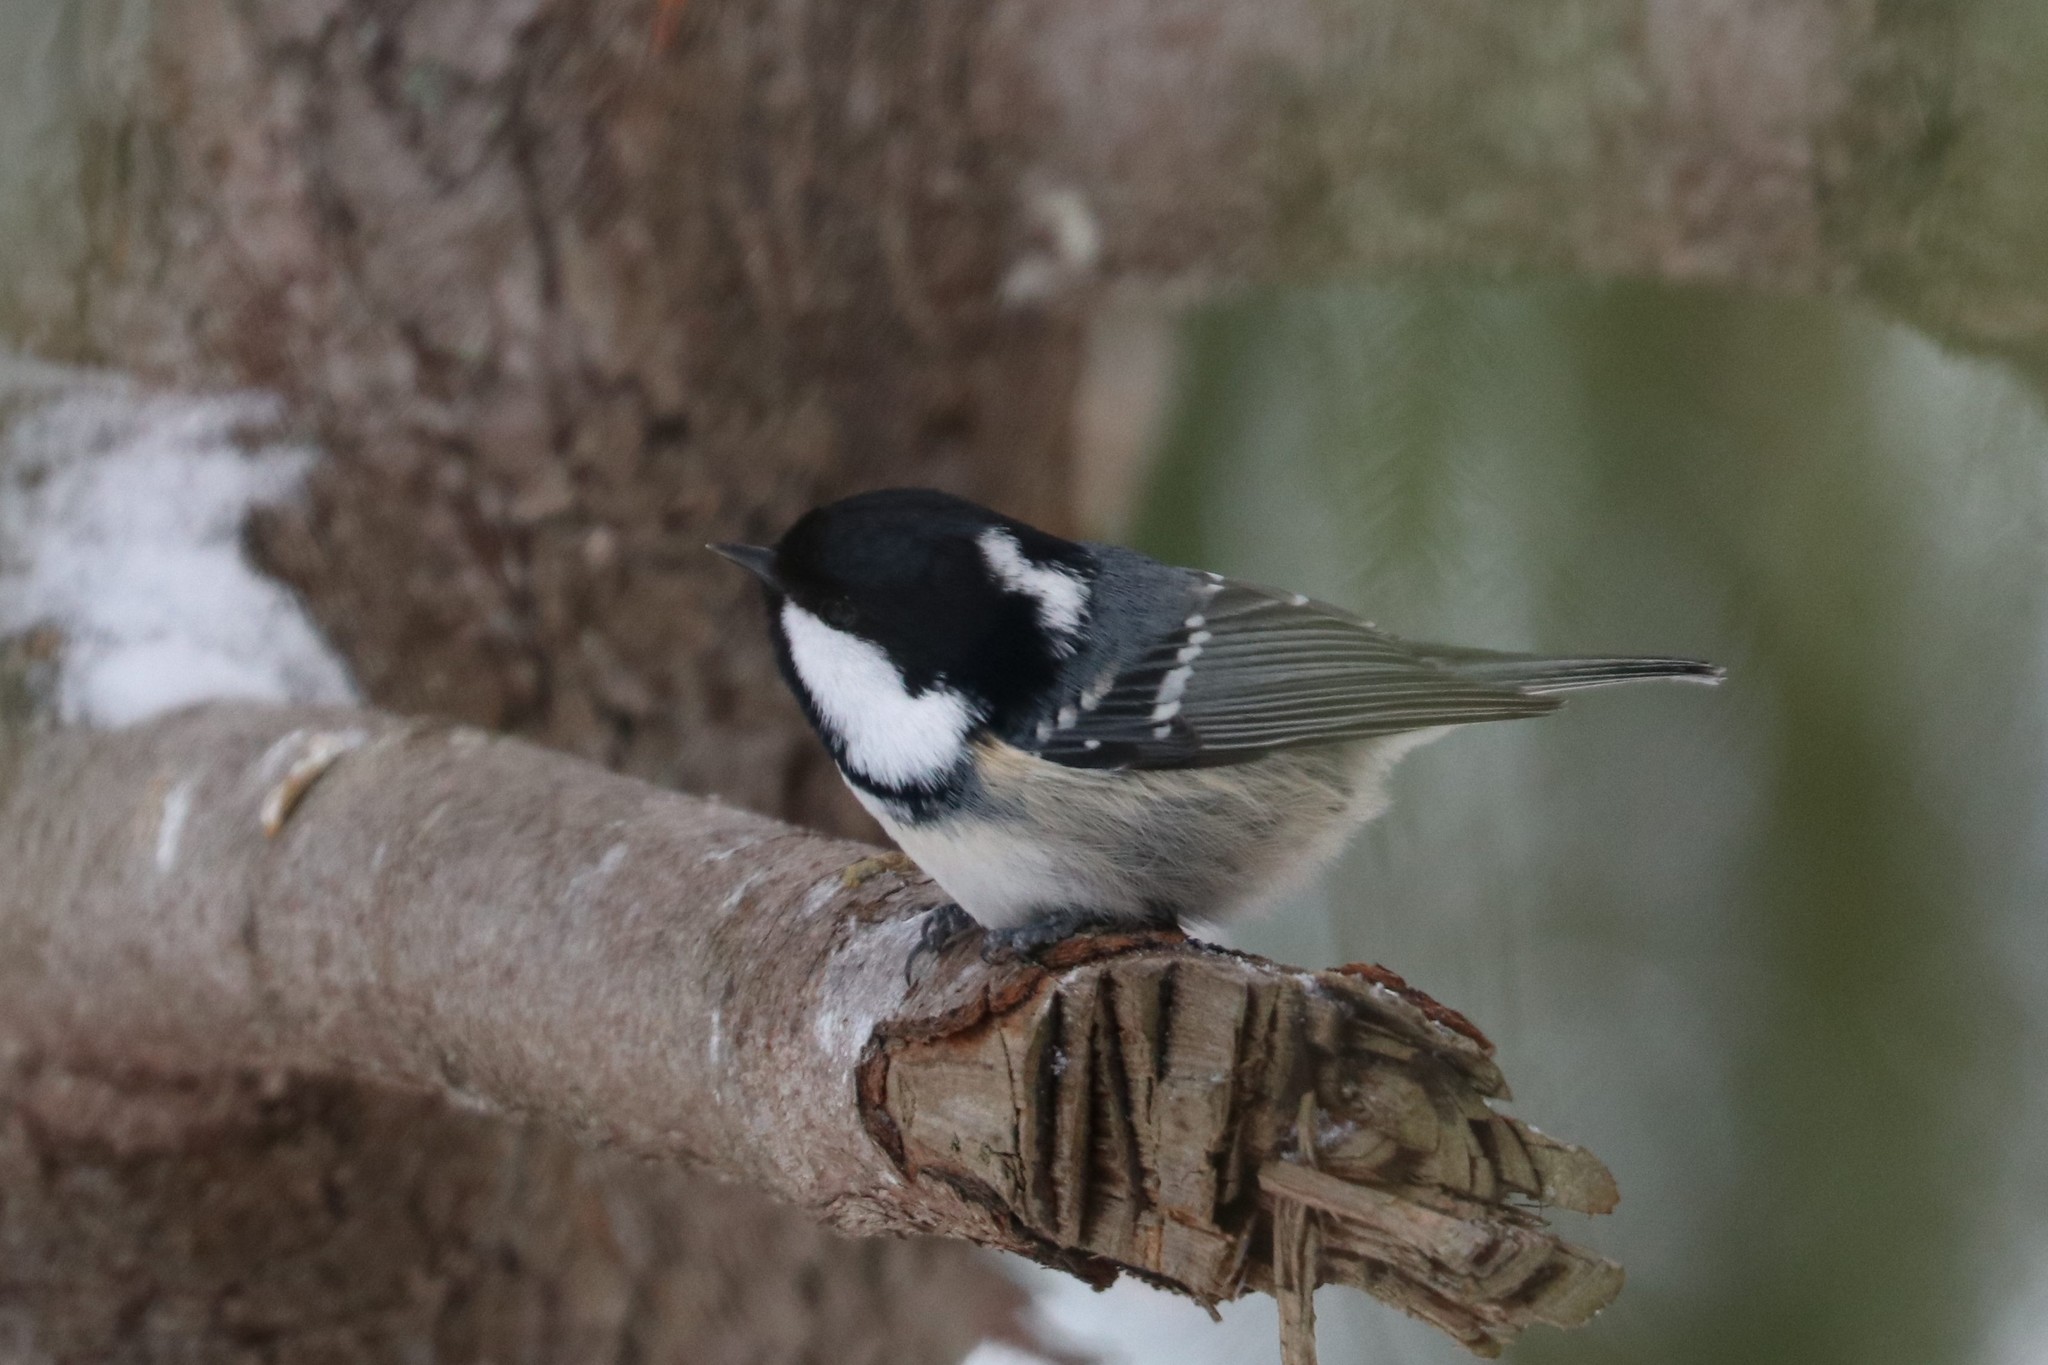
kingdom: Animalia
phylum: Chordata
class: Aves
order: Passeriformes
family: Paridae
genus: Periparus
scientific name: Periparus ater
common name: Coal tit
